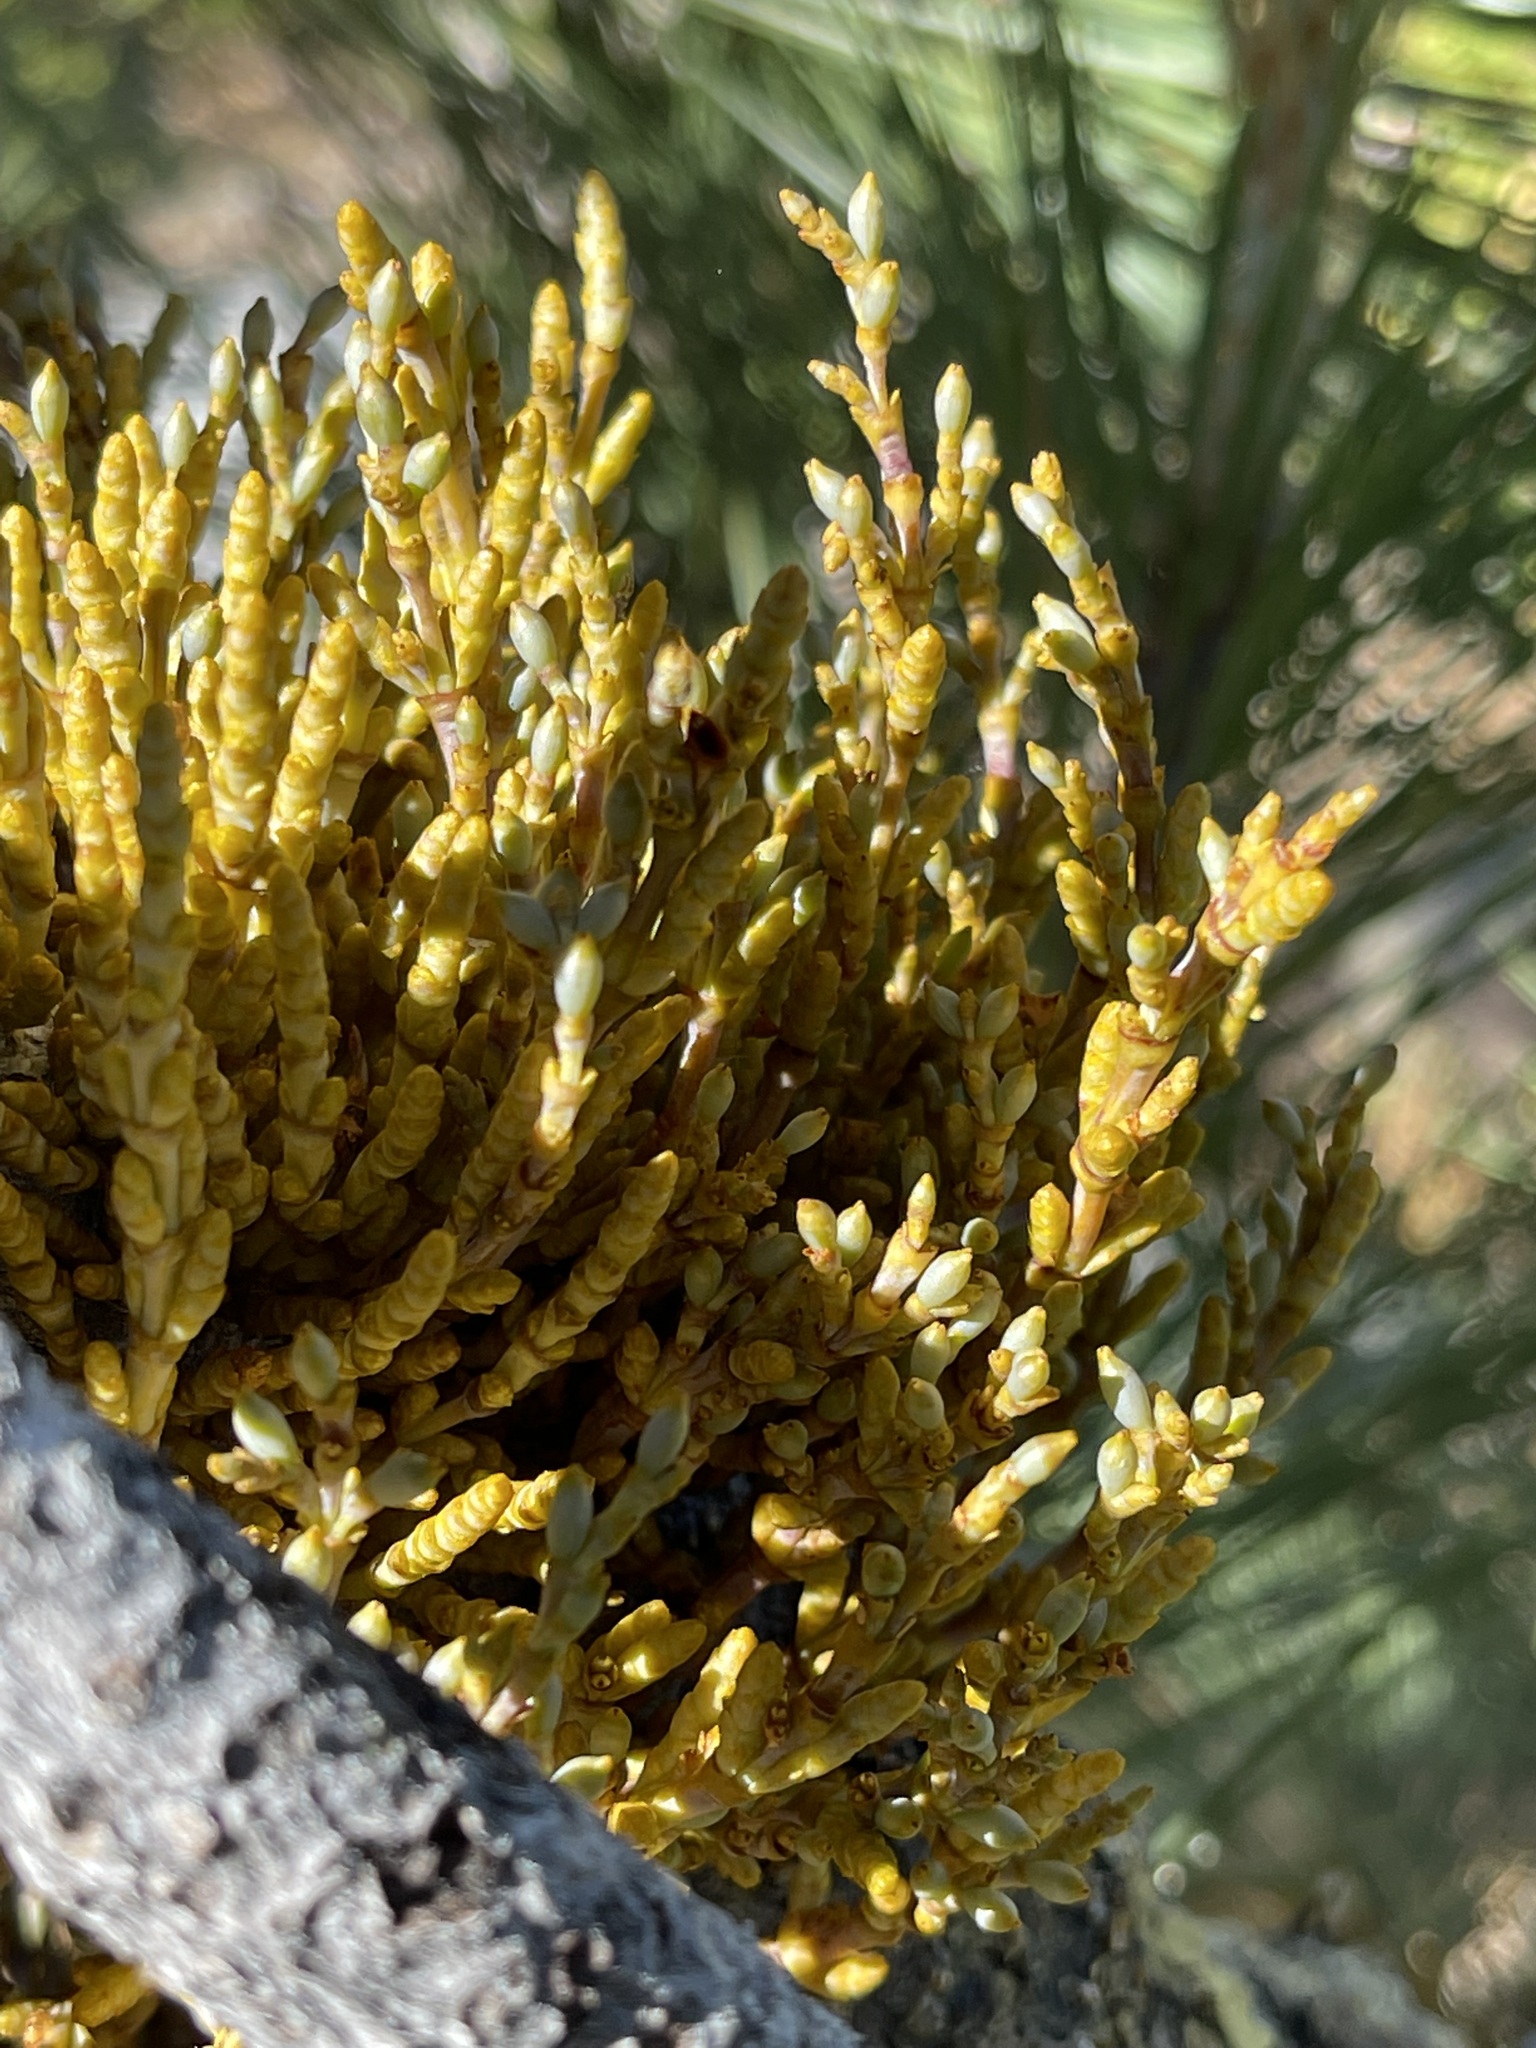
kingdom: Plantae
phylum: Tracheophyta
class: Magnoliopsida
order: Santalales
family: Viscaceae
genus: Arceuthobium
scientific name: Arceuthobium campylopodum
